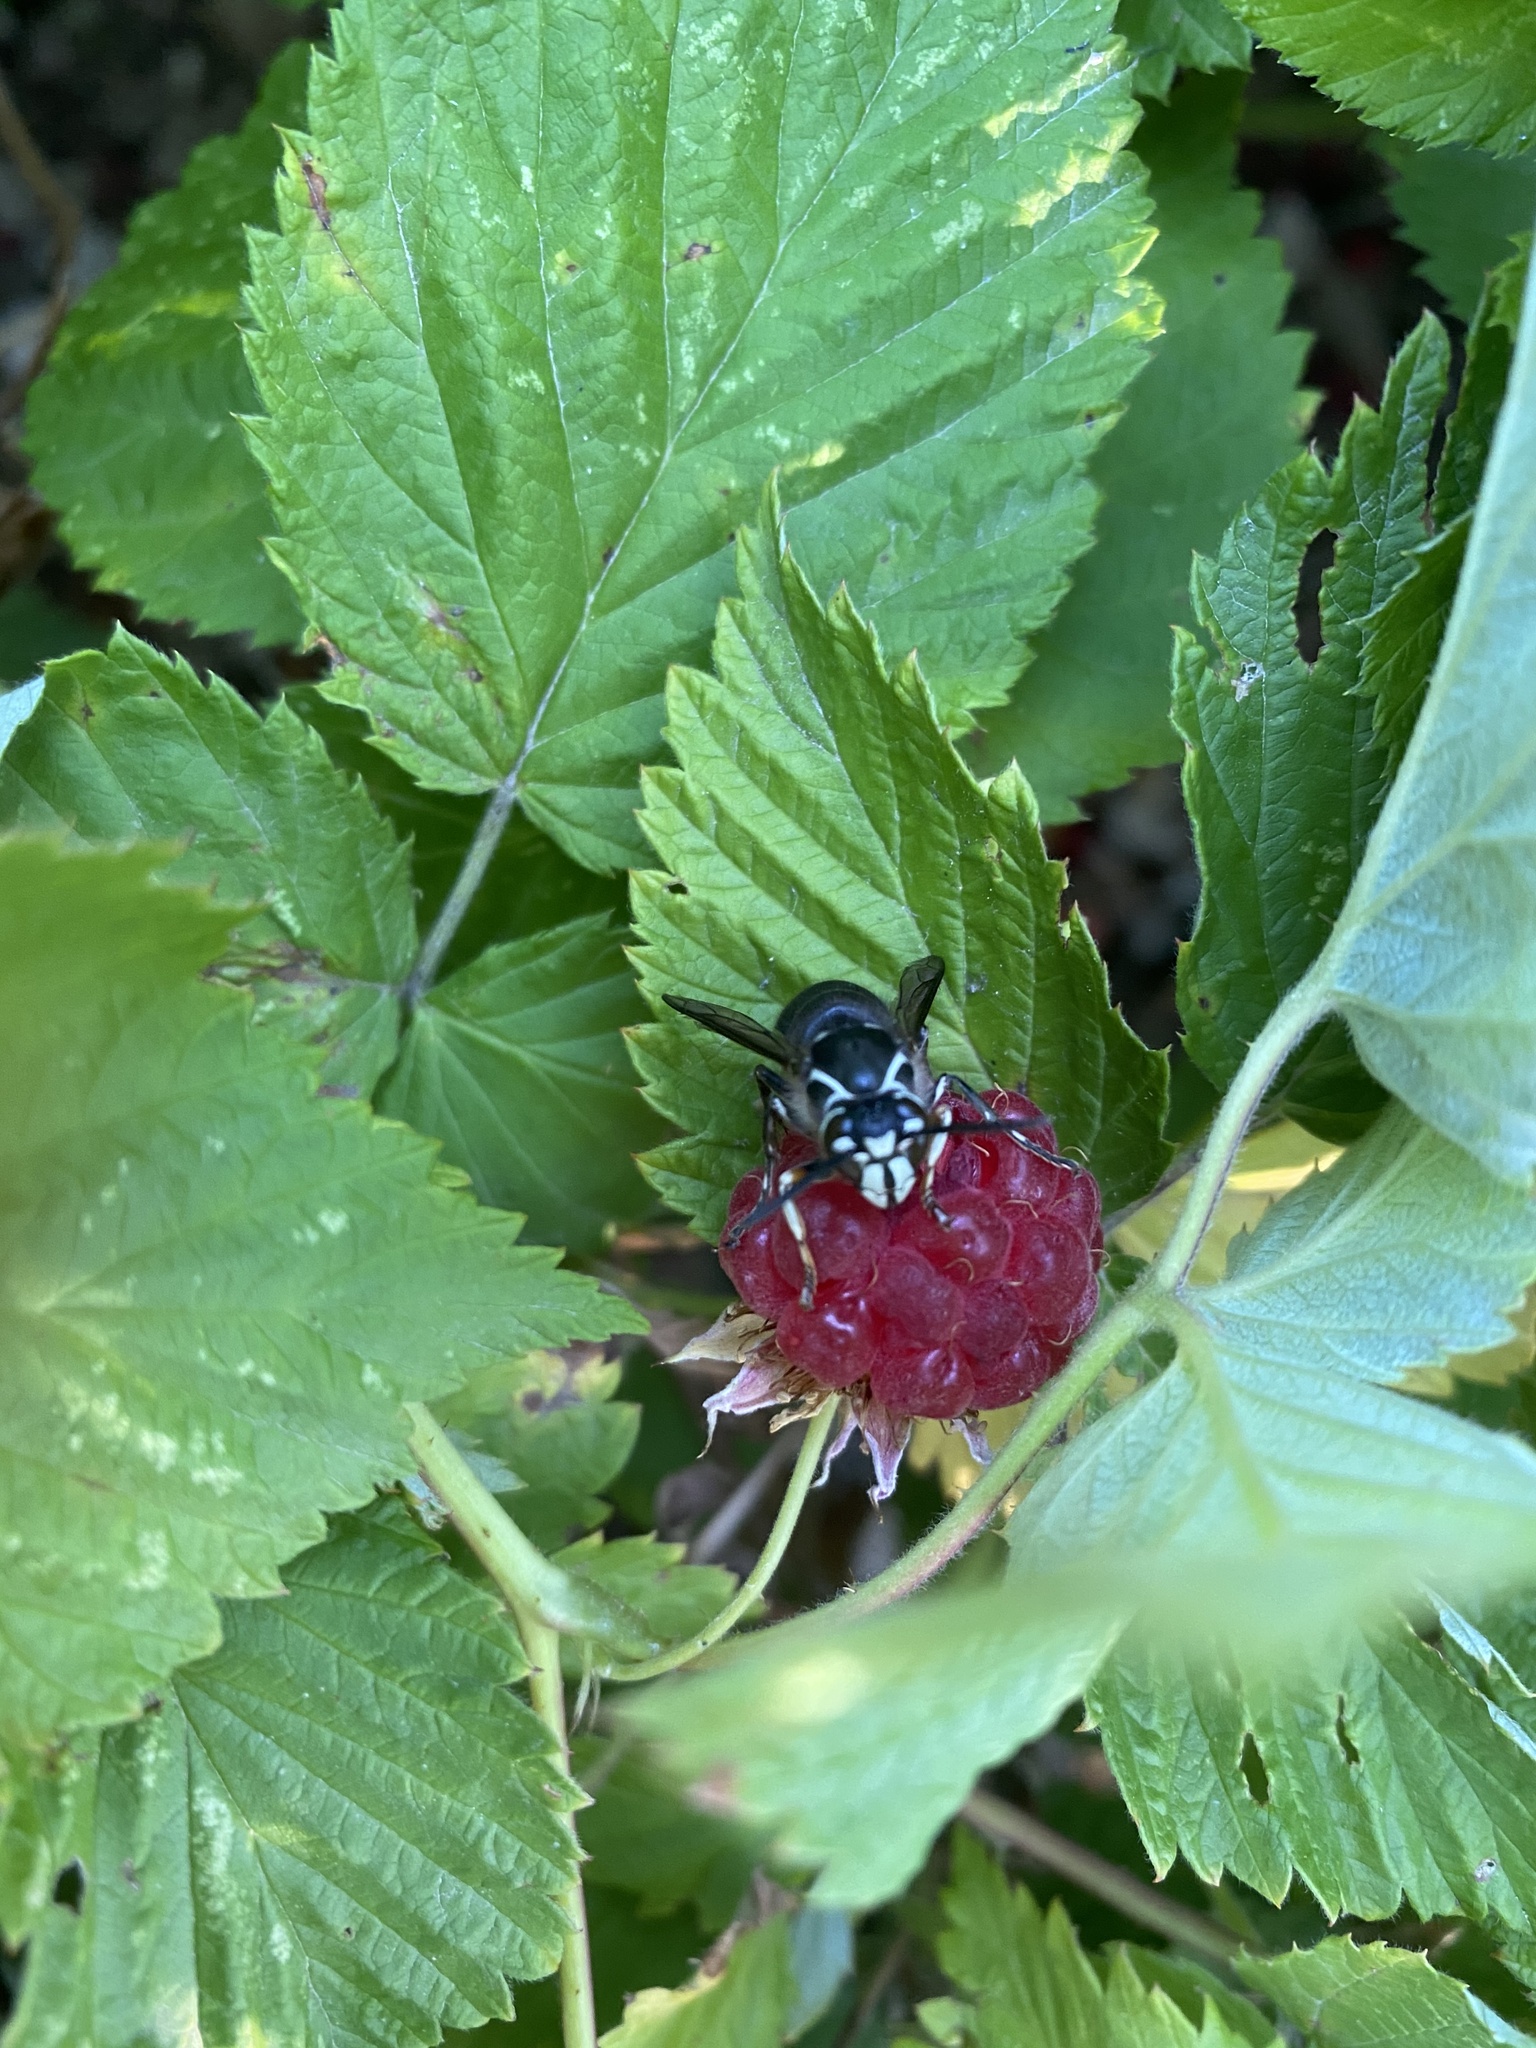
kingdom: Animalia
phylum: Arthropoda
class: Insecta
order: Hymenoptera
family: Vespidae
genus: Dolichovespula
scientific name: Dolichovespula maculata
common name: Bald-faced hornet
